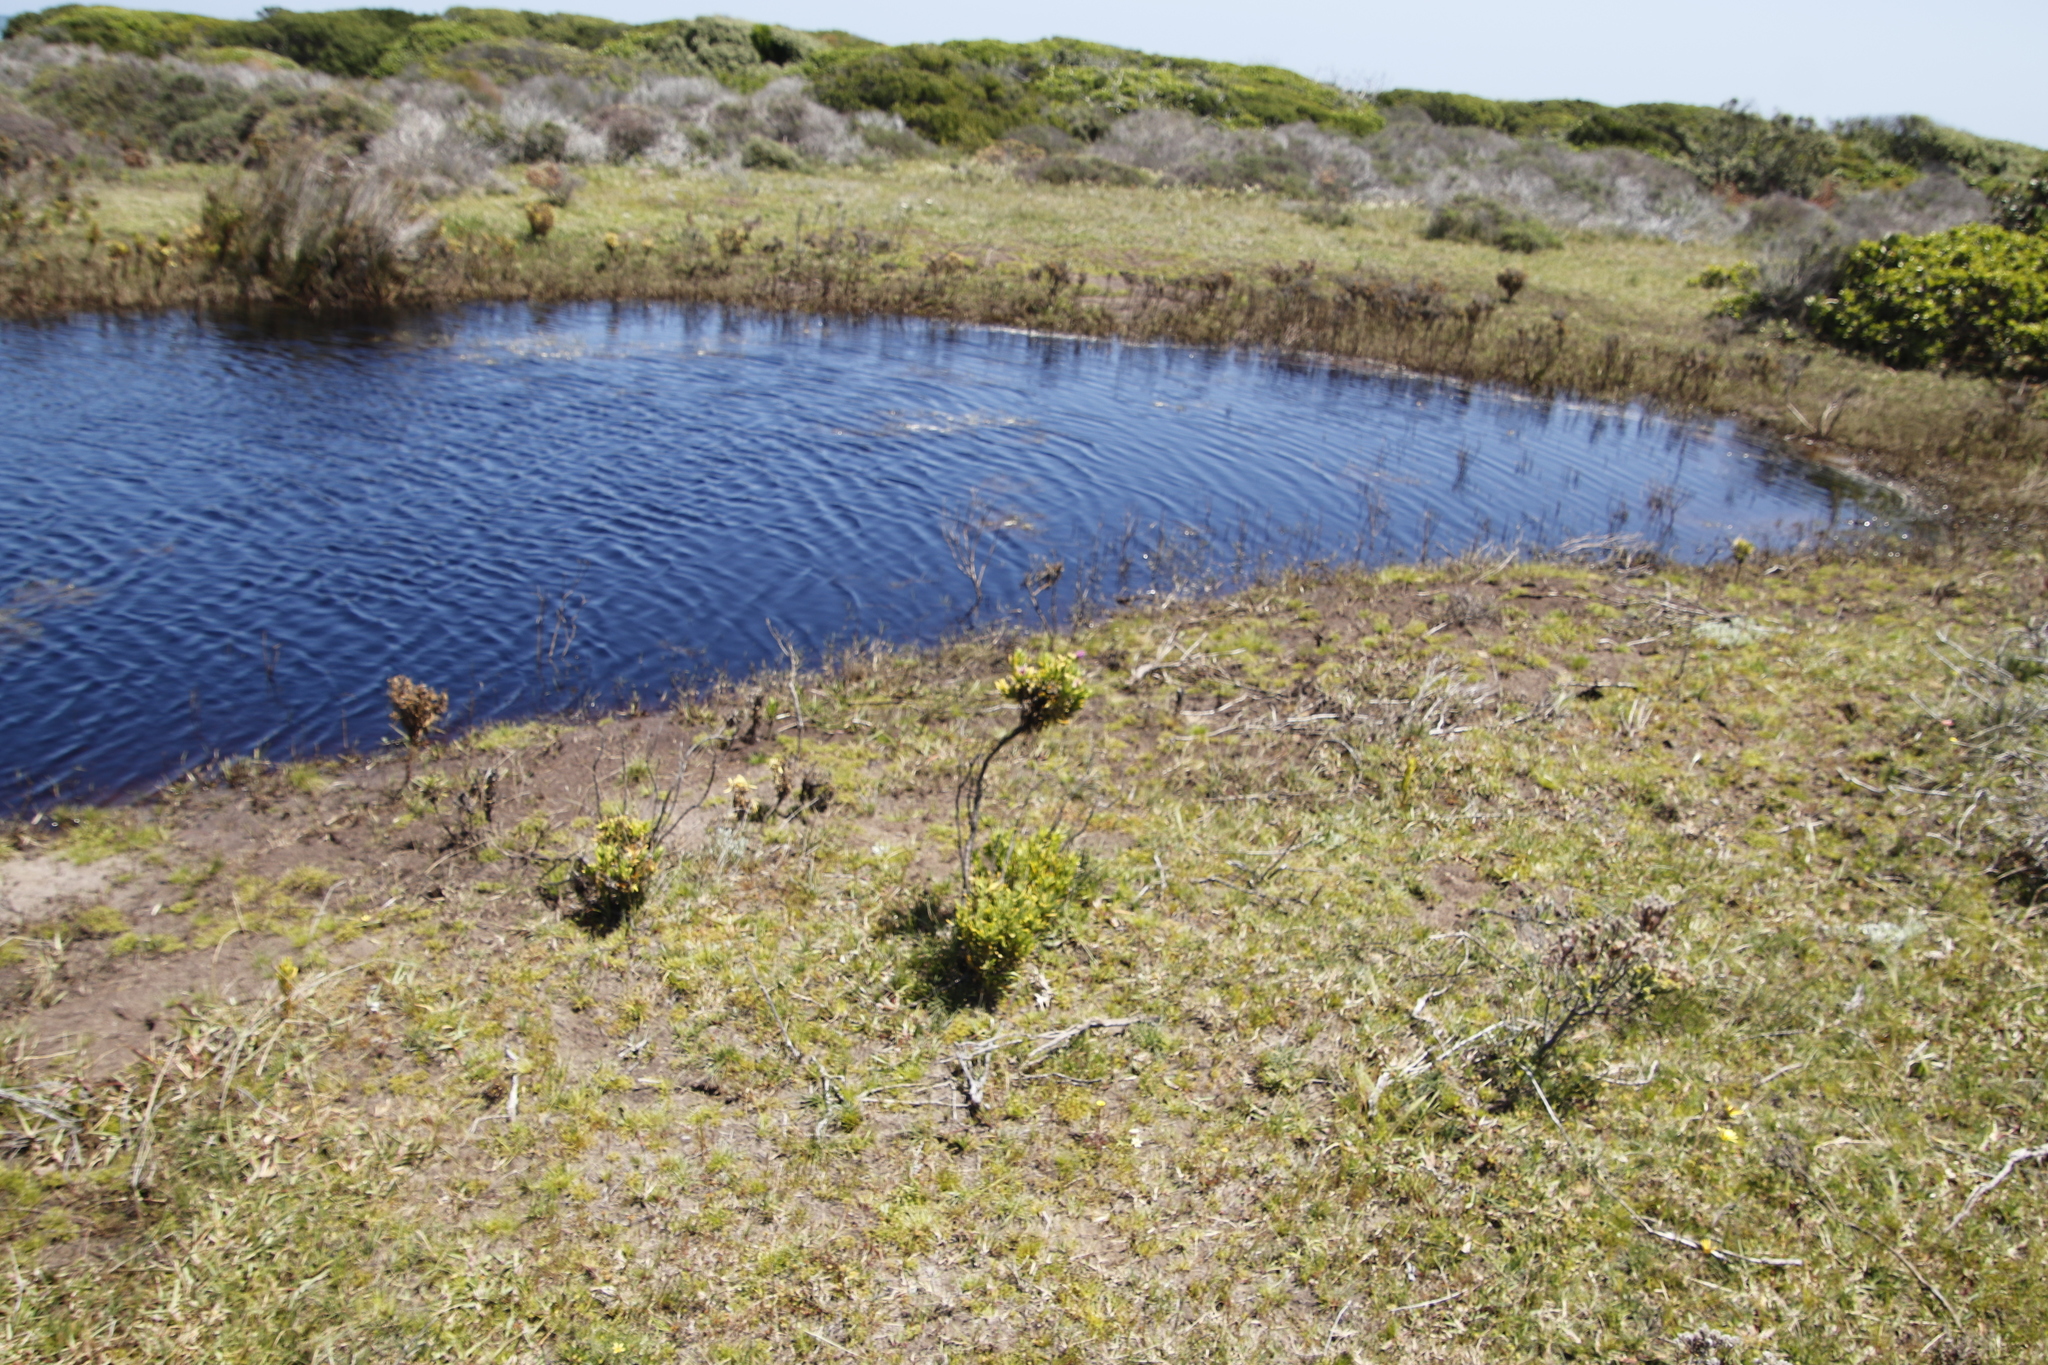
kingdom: Plantae
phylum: Tracheophyta
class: Magnoliopsida
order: Gentianales
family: Gentianaceae
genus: Orphium
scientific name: Orphium frutescens
